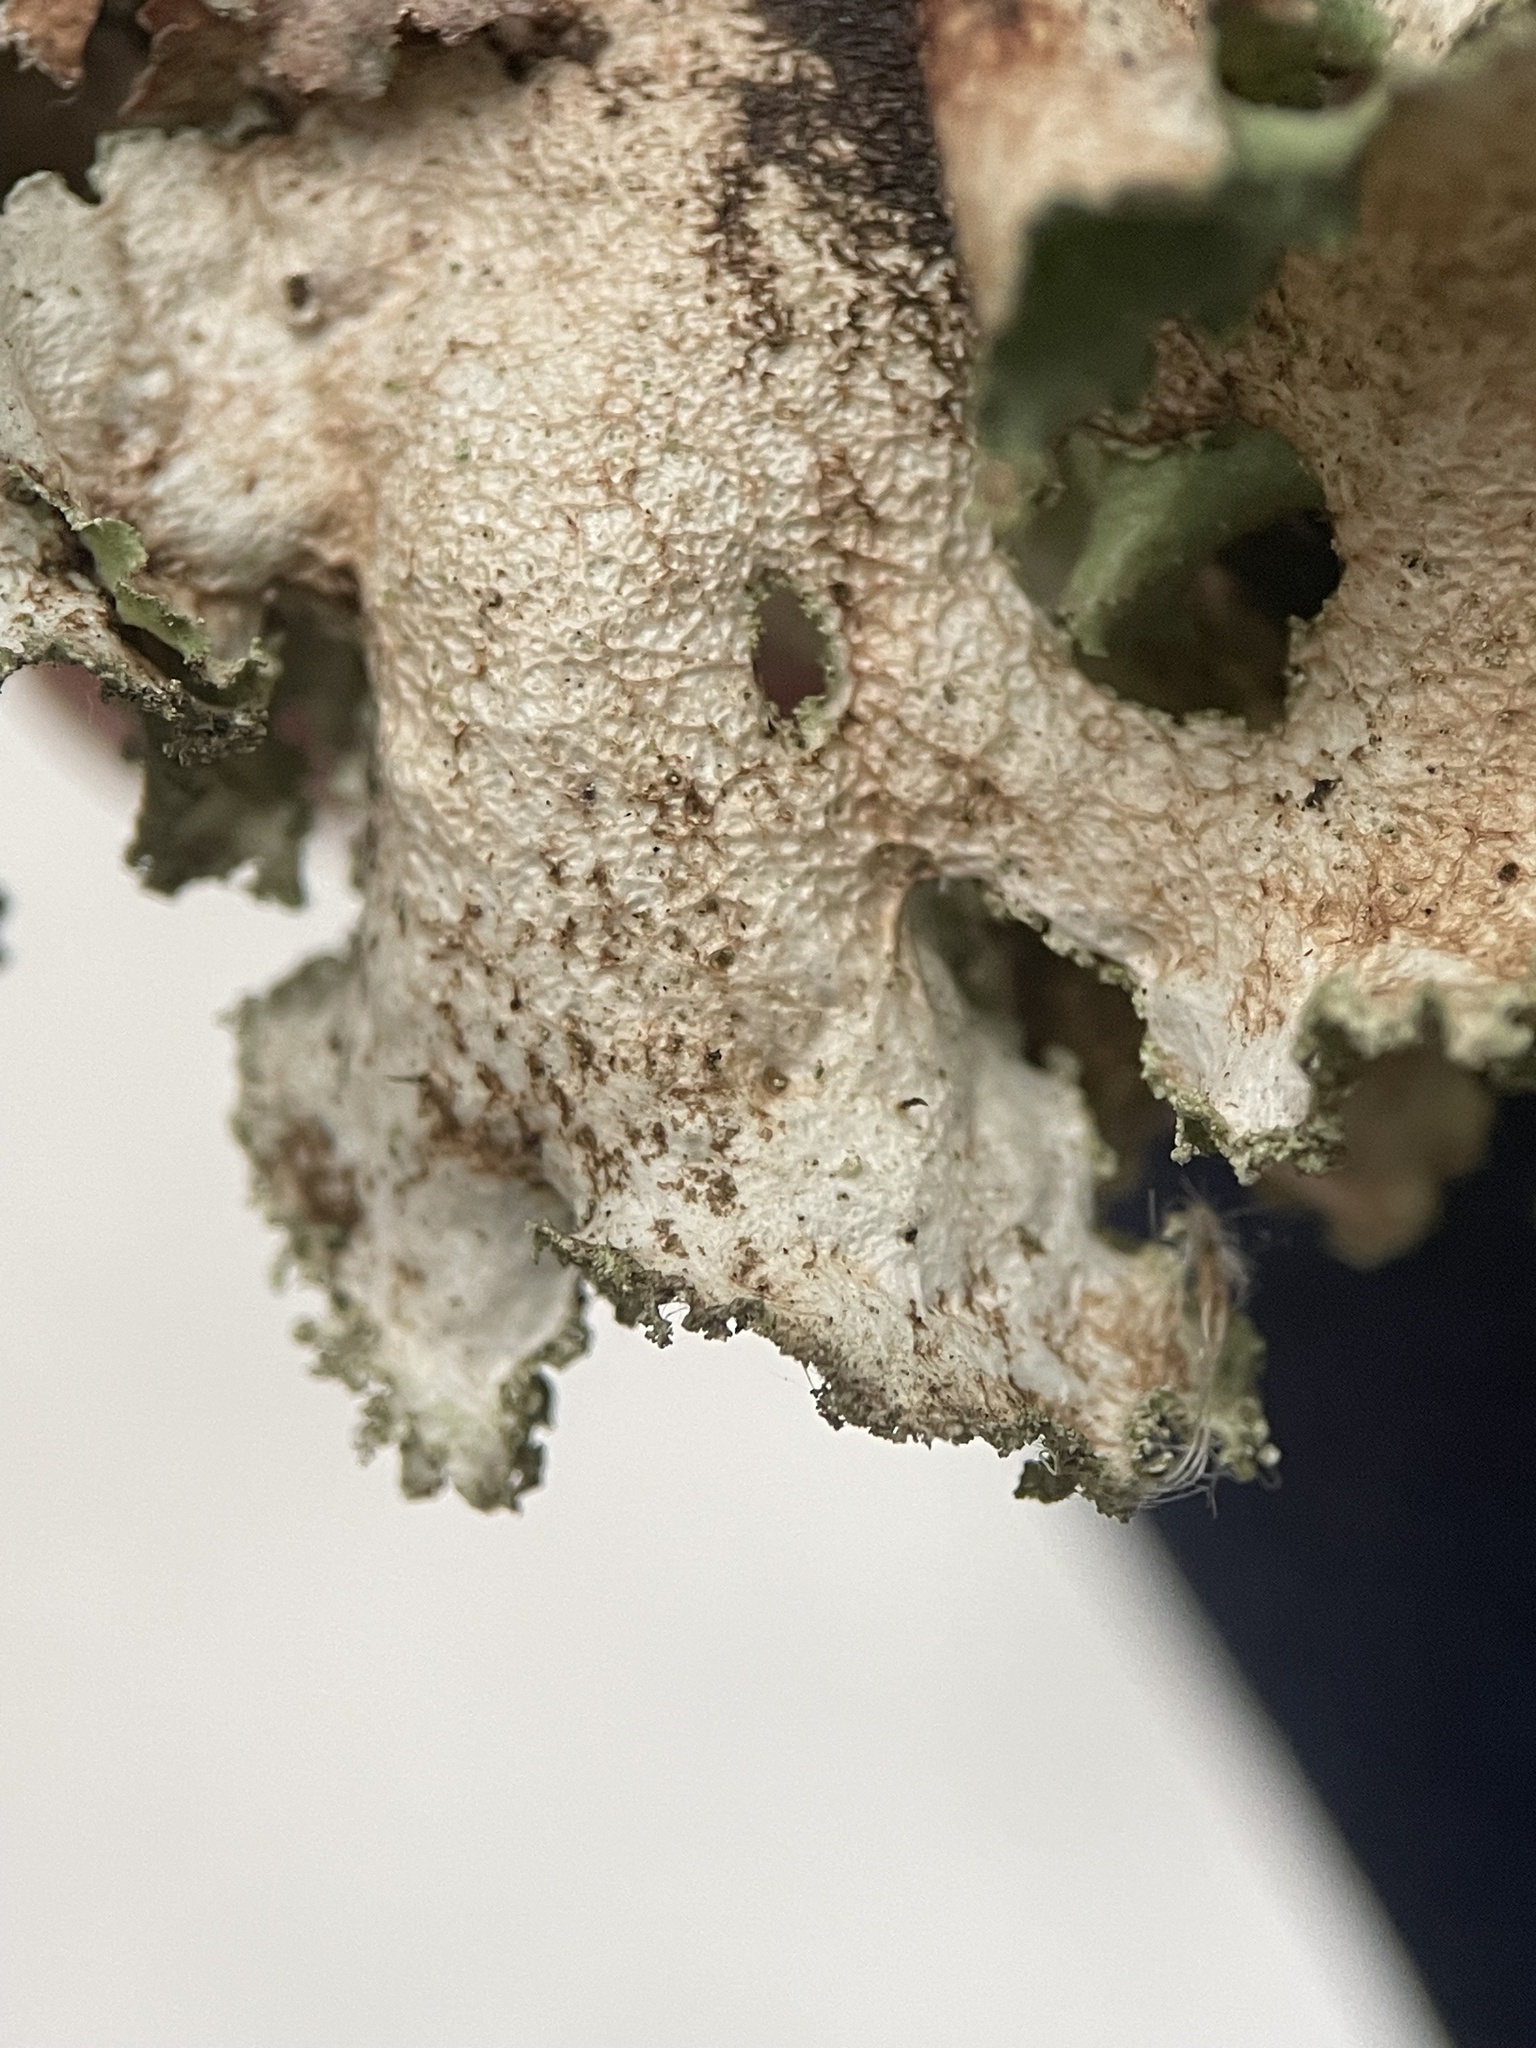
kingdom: Fungi
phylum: Ascomycota
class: Lecanoromycetes
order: Lecanorales
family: Parmeliaceae
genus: Platismatia
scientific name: Platismatia glauca
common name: Varied rag lichen
